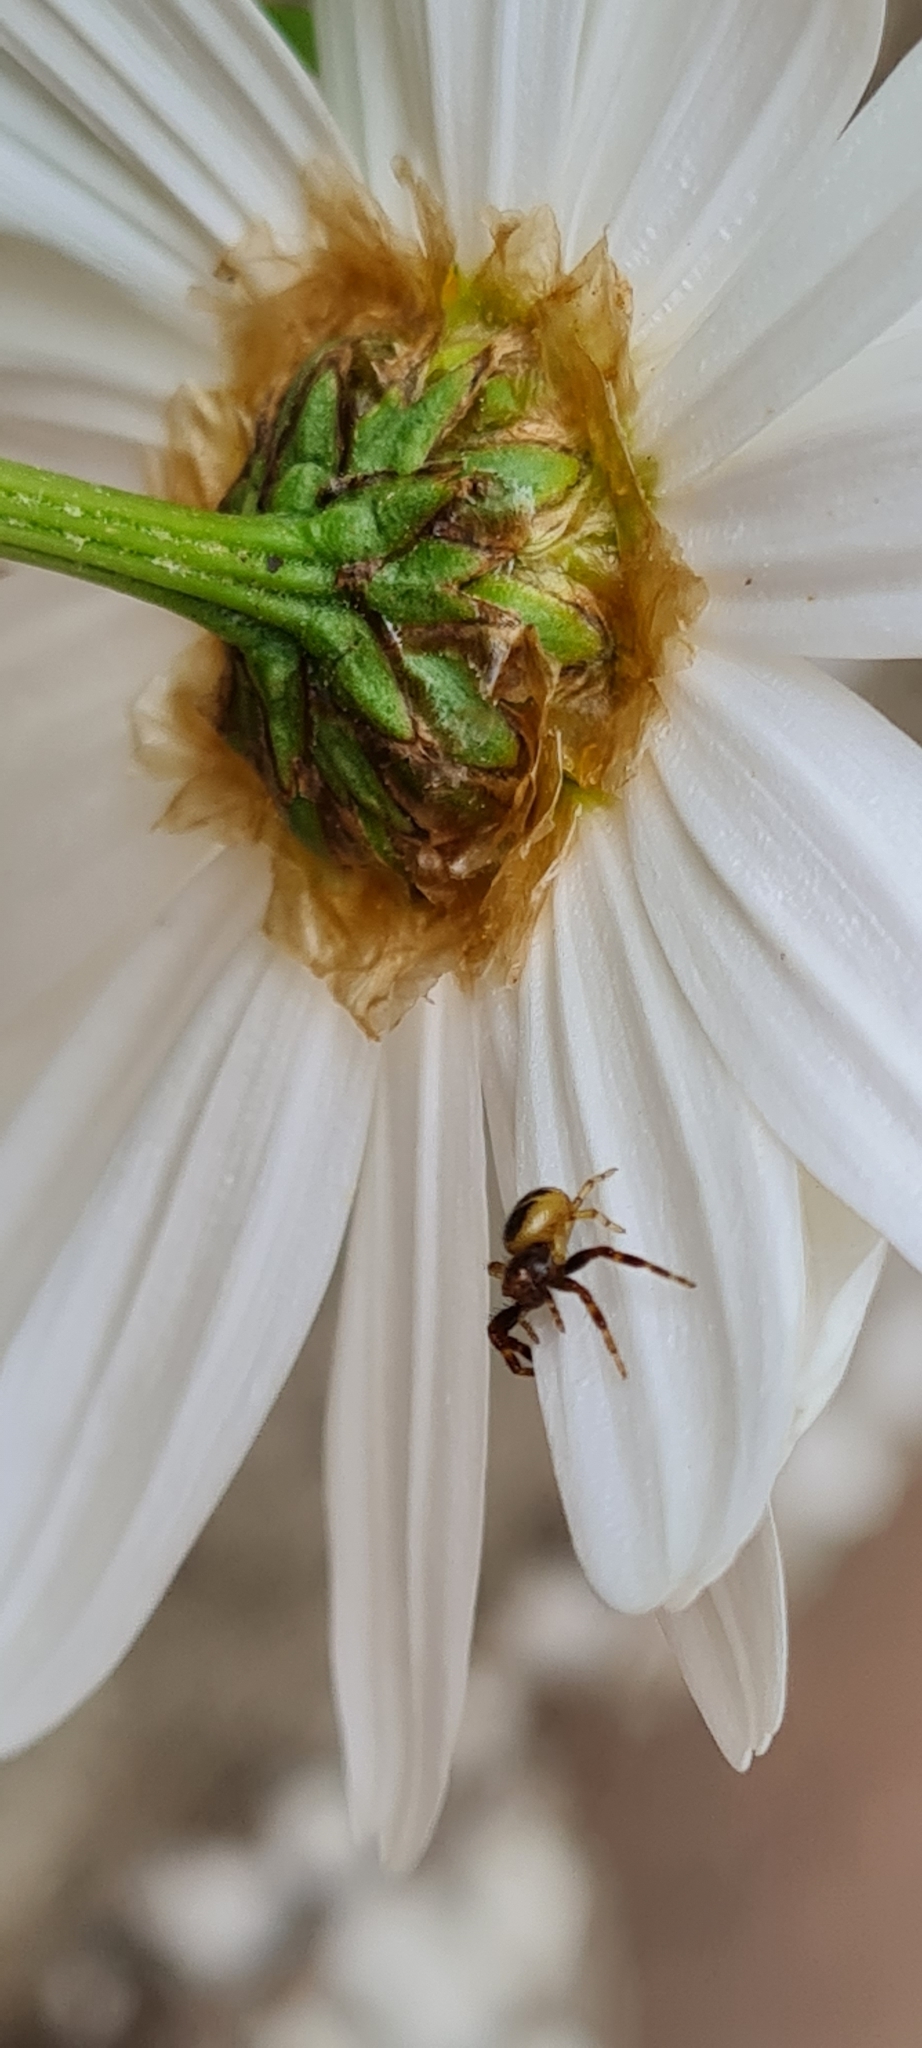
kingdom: Animalia
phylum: Arthropoda
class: Arachnida
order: Araneae
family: Thomisidae
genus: Synema
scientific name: Synema globosum
